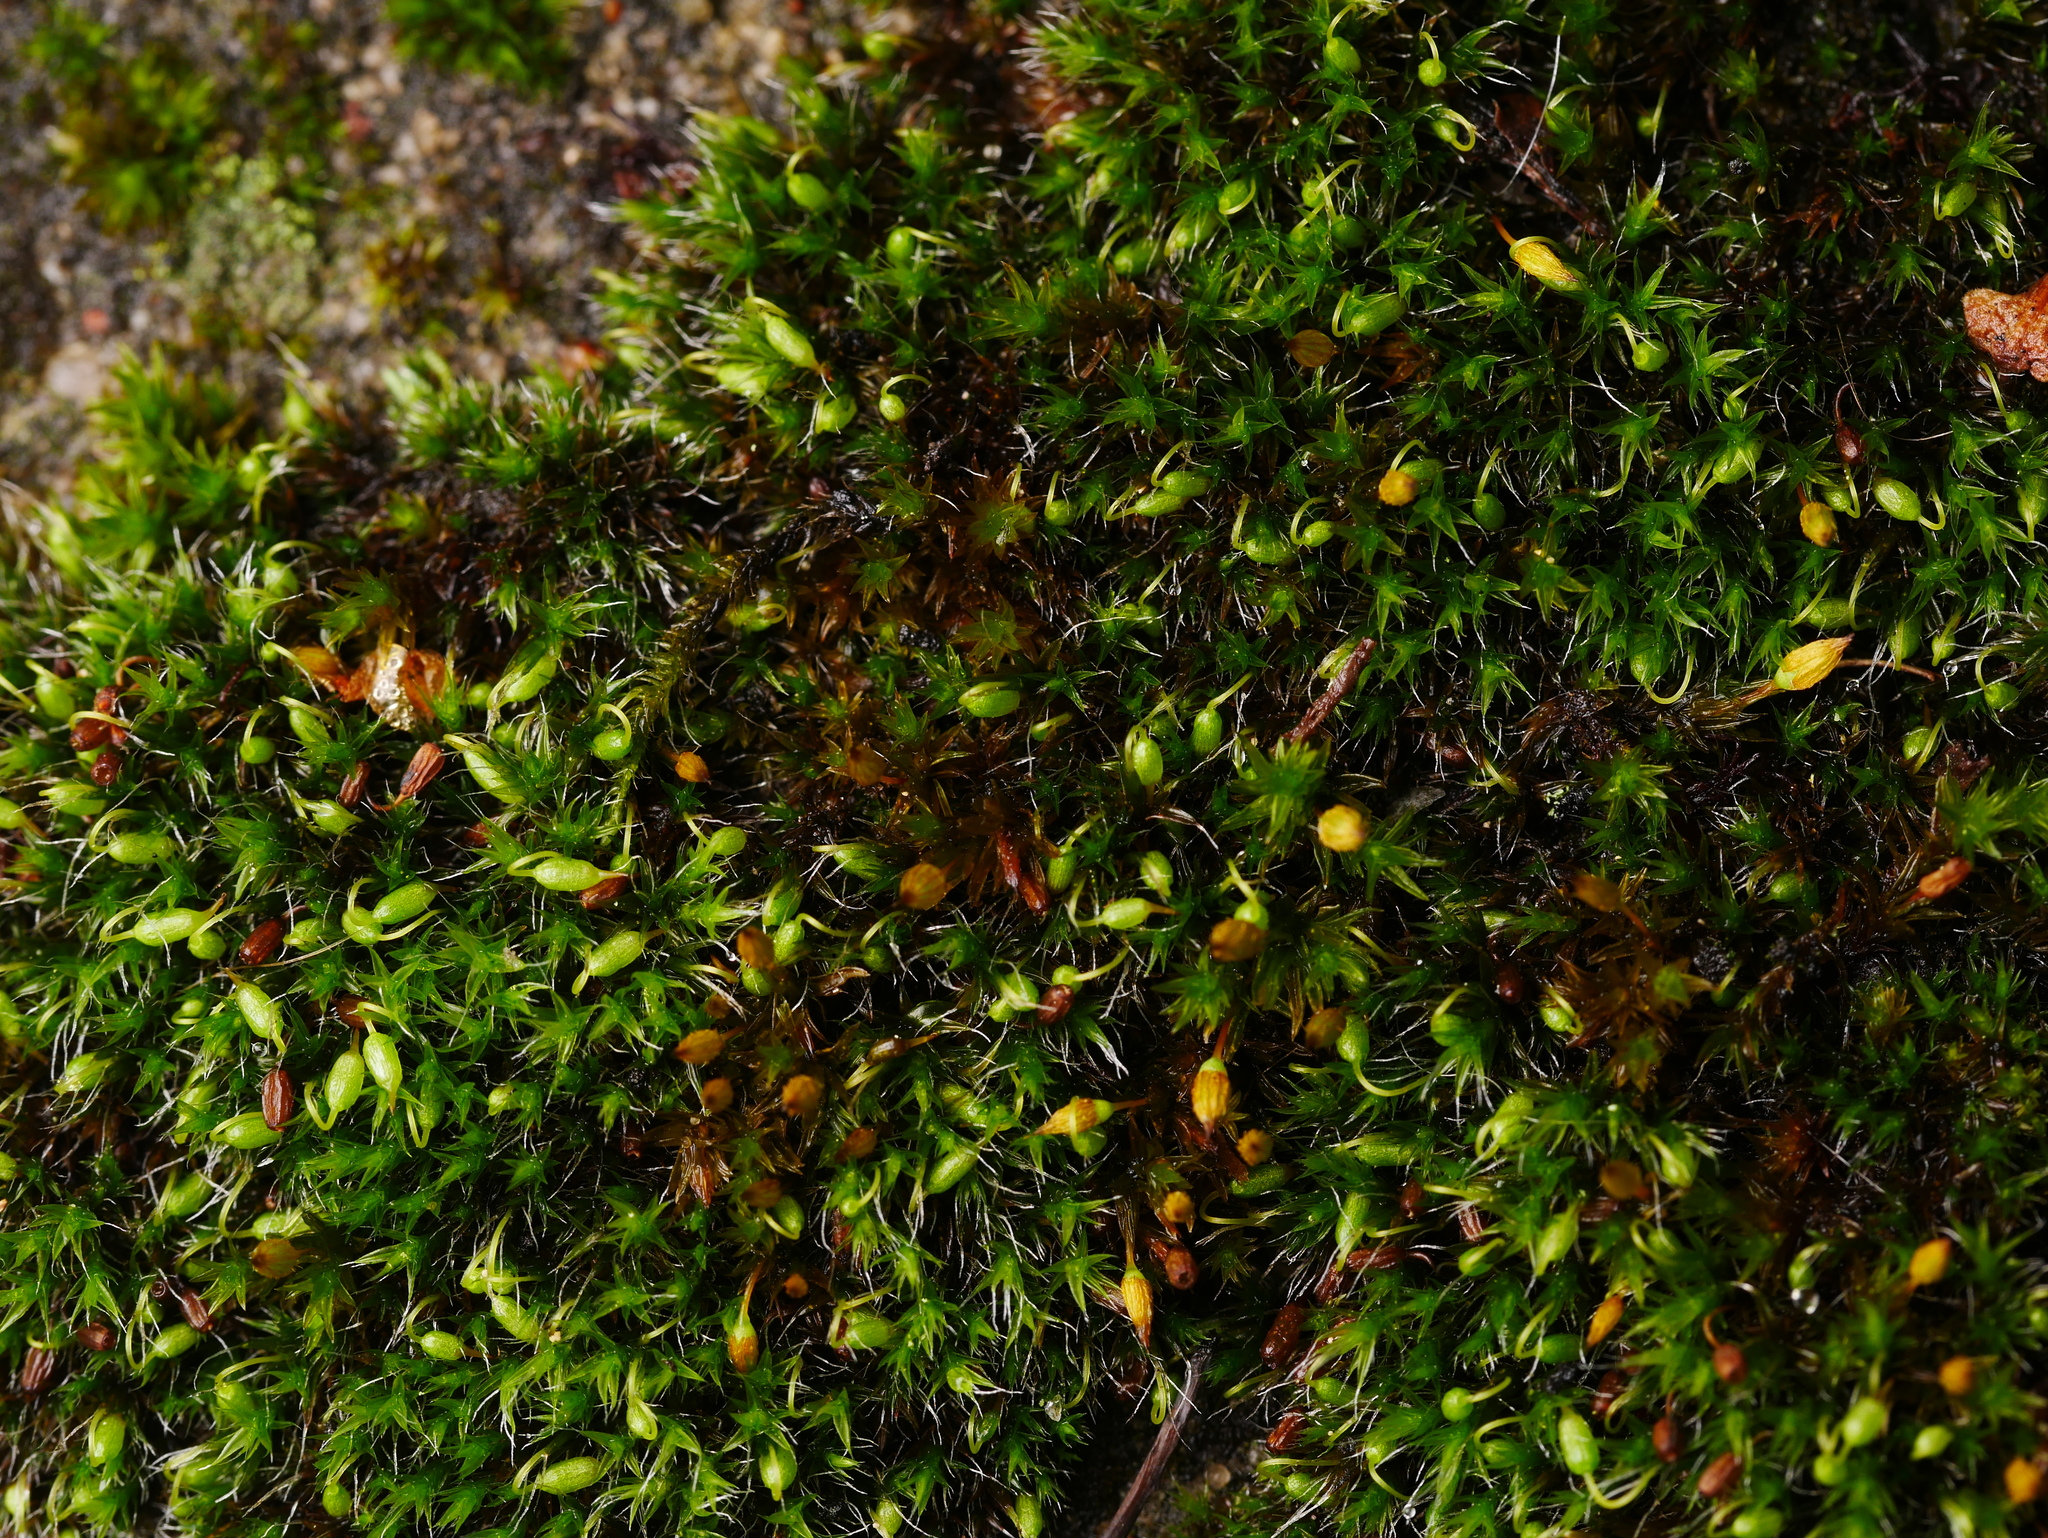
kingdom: Plantae
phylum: Bryophyta
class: Bryopsida
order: Grimmiales
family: Grimmiaceae
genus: Grimmia
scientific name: Grimmia pulvinata
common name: Grey-cushioned grimmia
